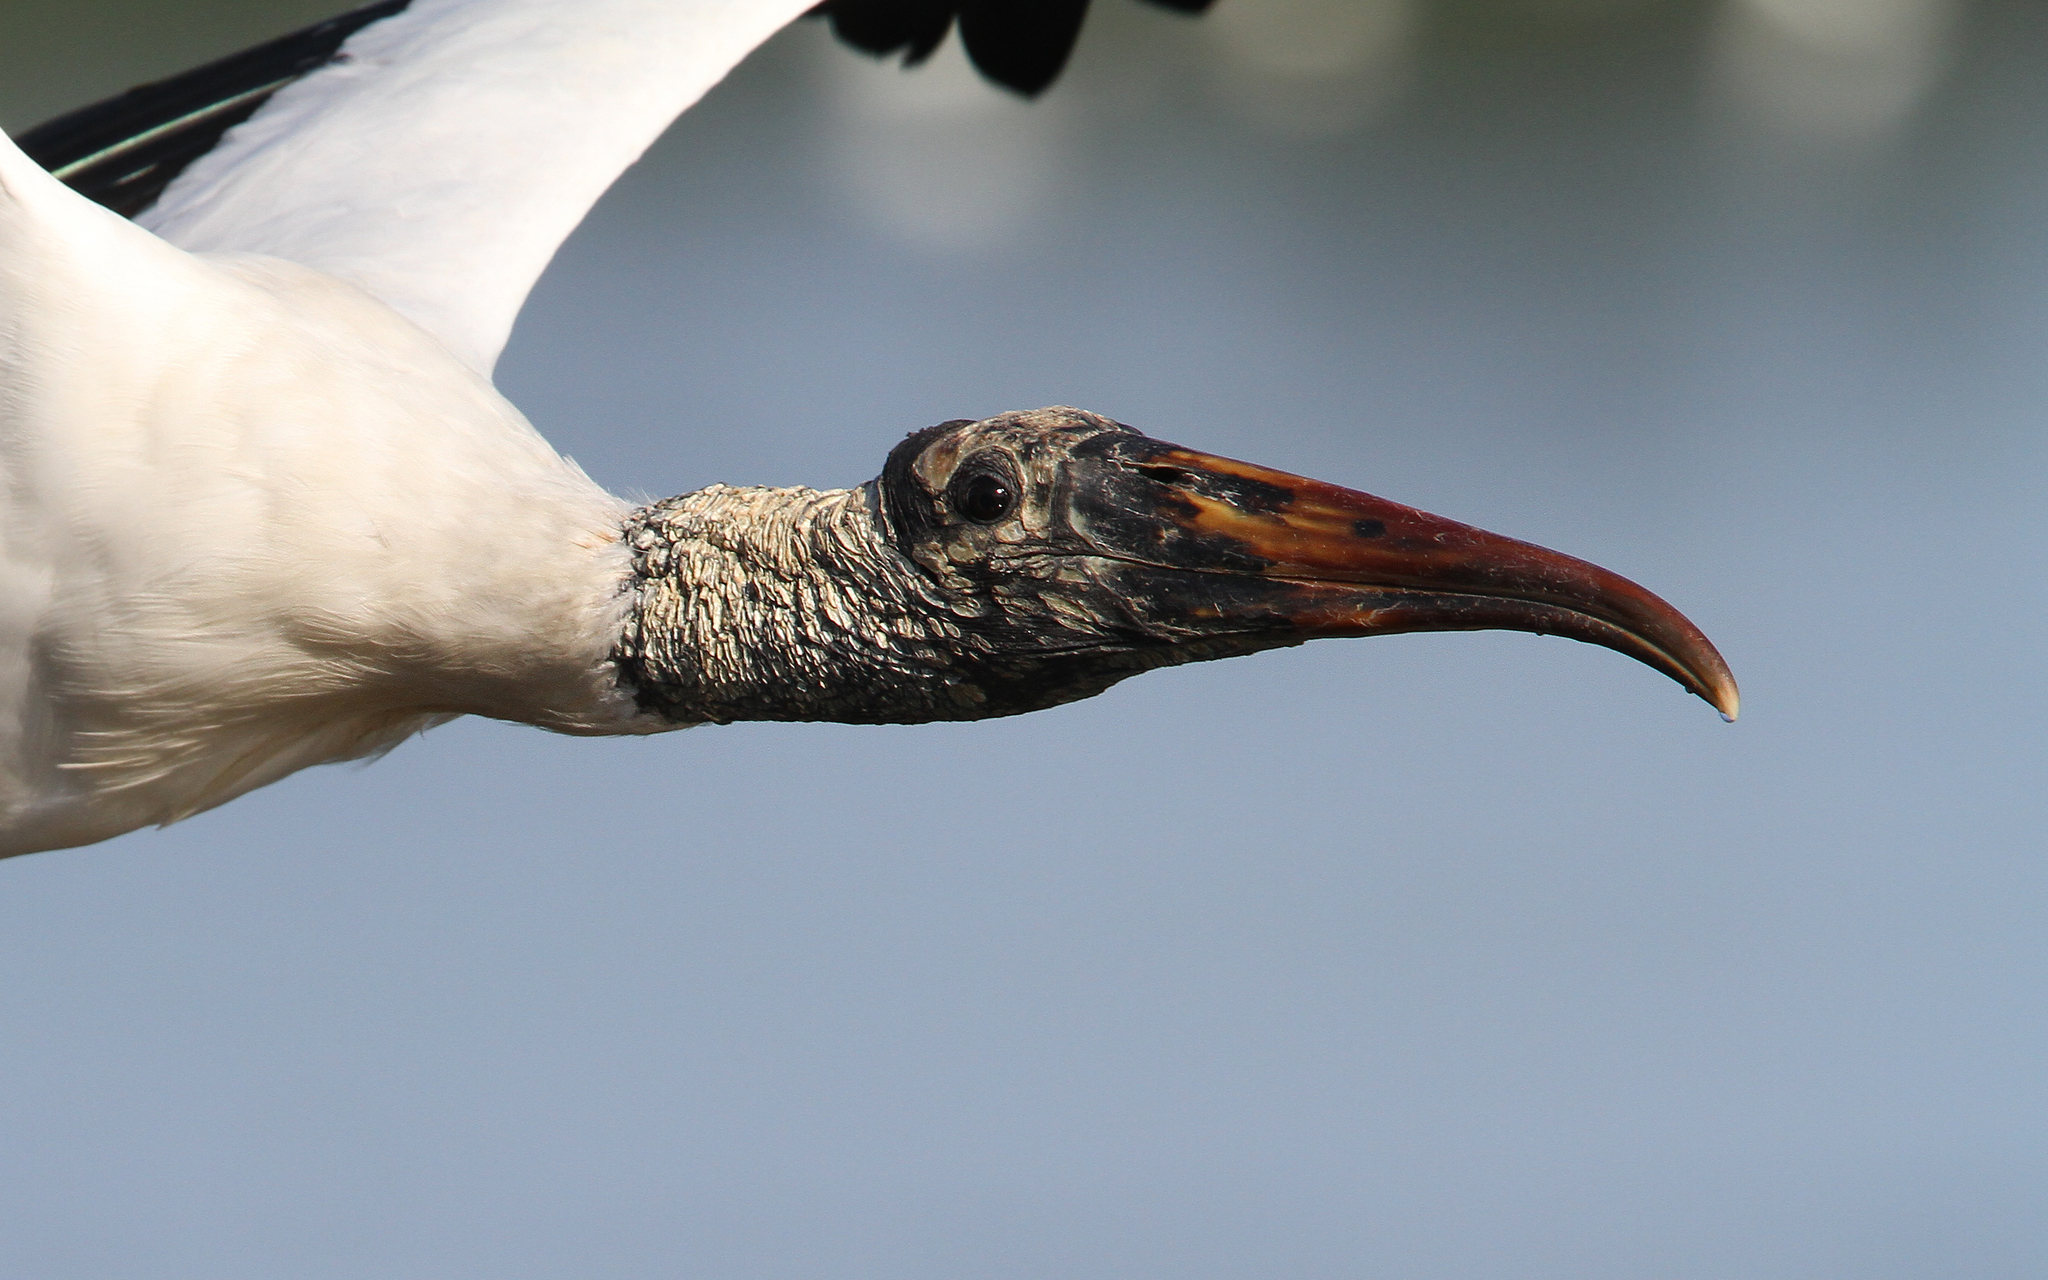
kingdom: Animalia
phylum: Chordata
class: Aves
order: Ciconiiformes
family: Ciconiidae
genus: Mycteria
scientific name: Mycteria americana
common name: Wood stork
